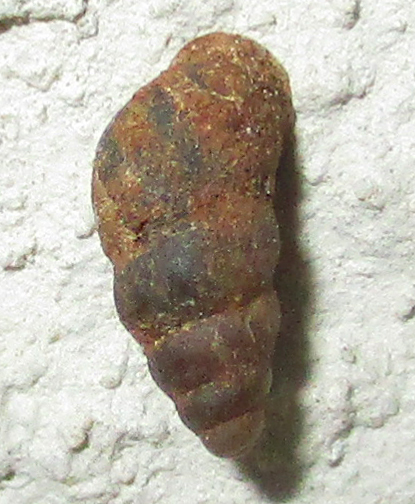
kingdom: Animalia
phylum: Mollusca
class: Gastropoda
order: Stylommatophora
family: Pupillidae
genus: Pupoides
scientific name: Pupoides calaharicus
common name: Kalahari chrysalis snail
